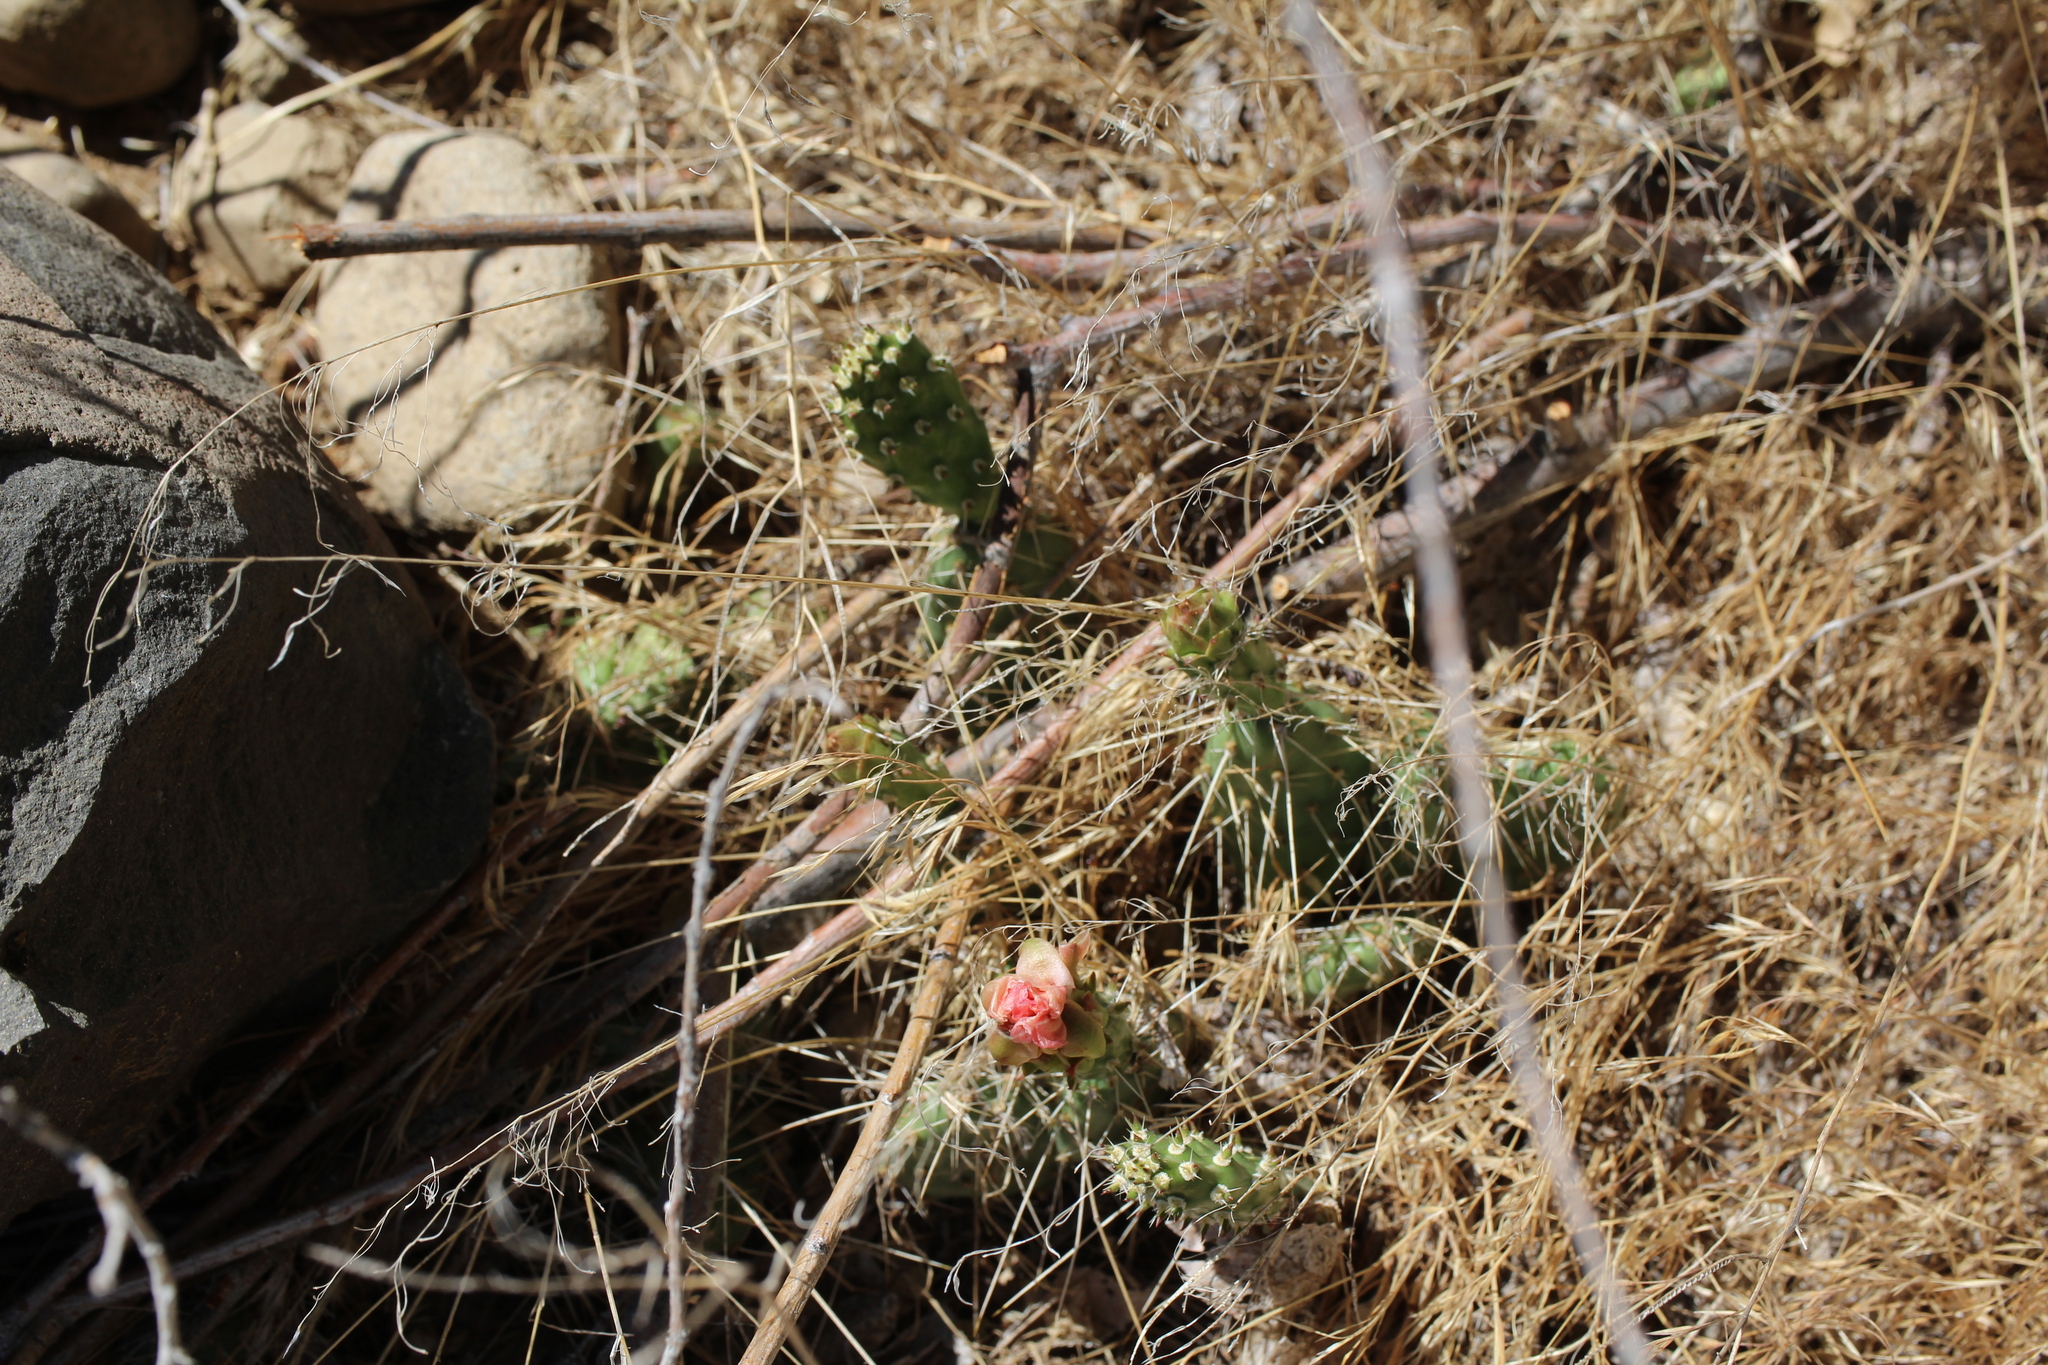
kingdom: Plantae
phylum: Tracheophyta
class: Magnoliopsida
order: Caryophyllales
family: Cactaceae
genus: Opuntia
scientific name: Opuntia columbiana
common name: Columbia prickly-pear
